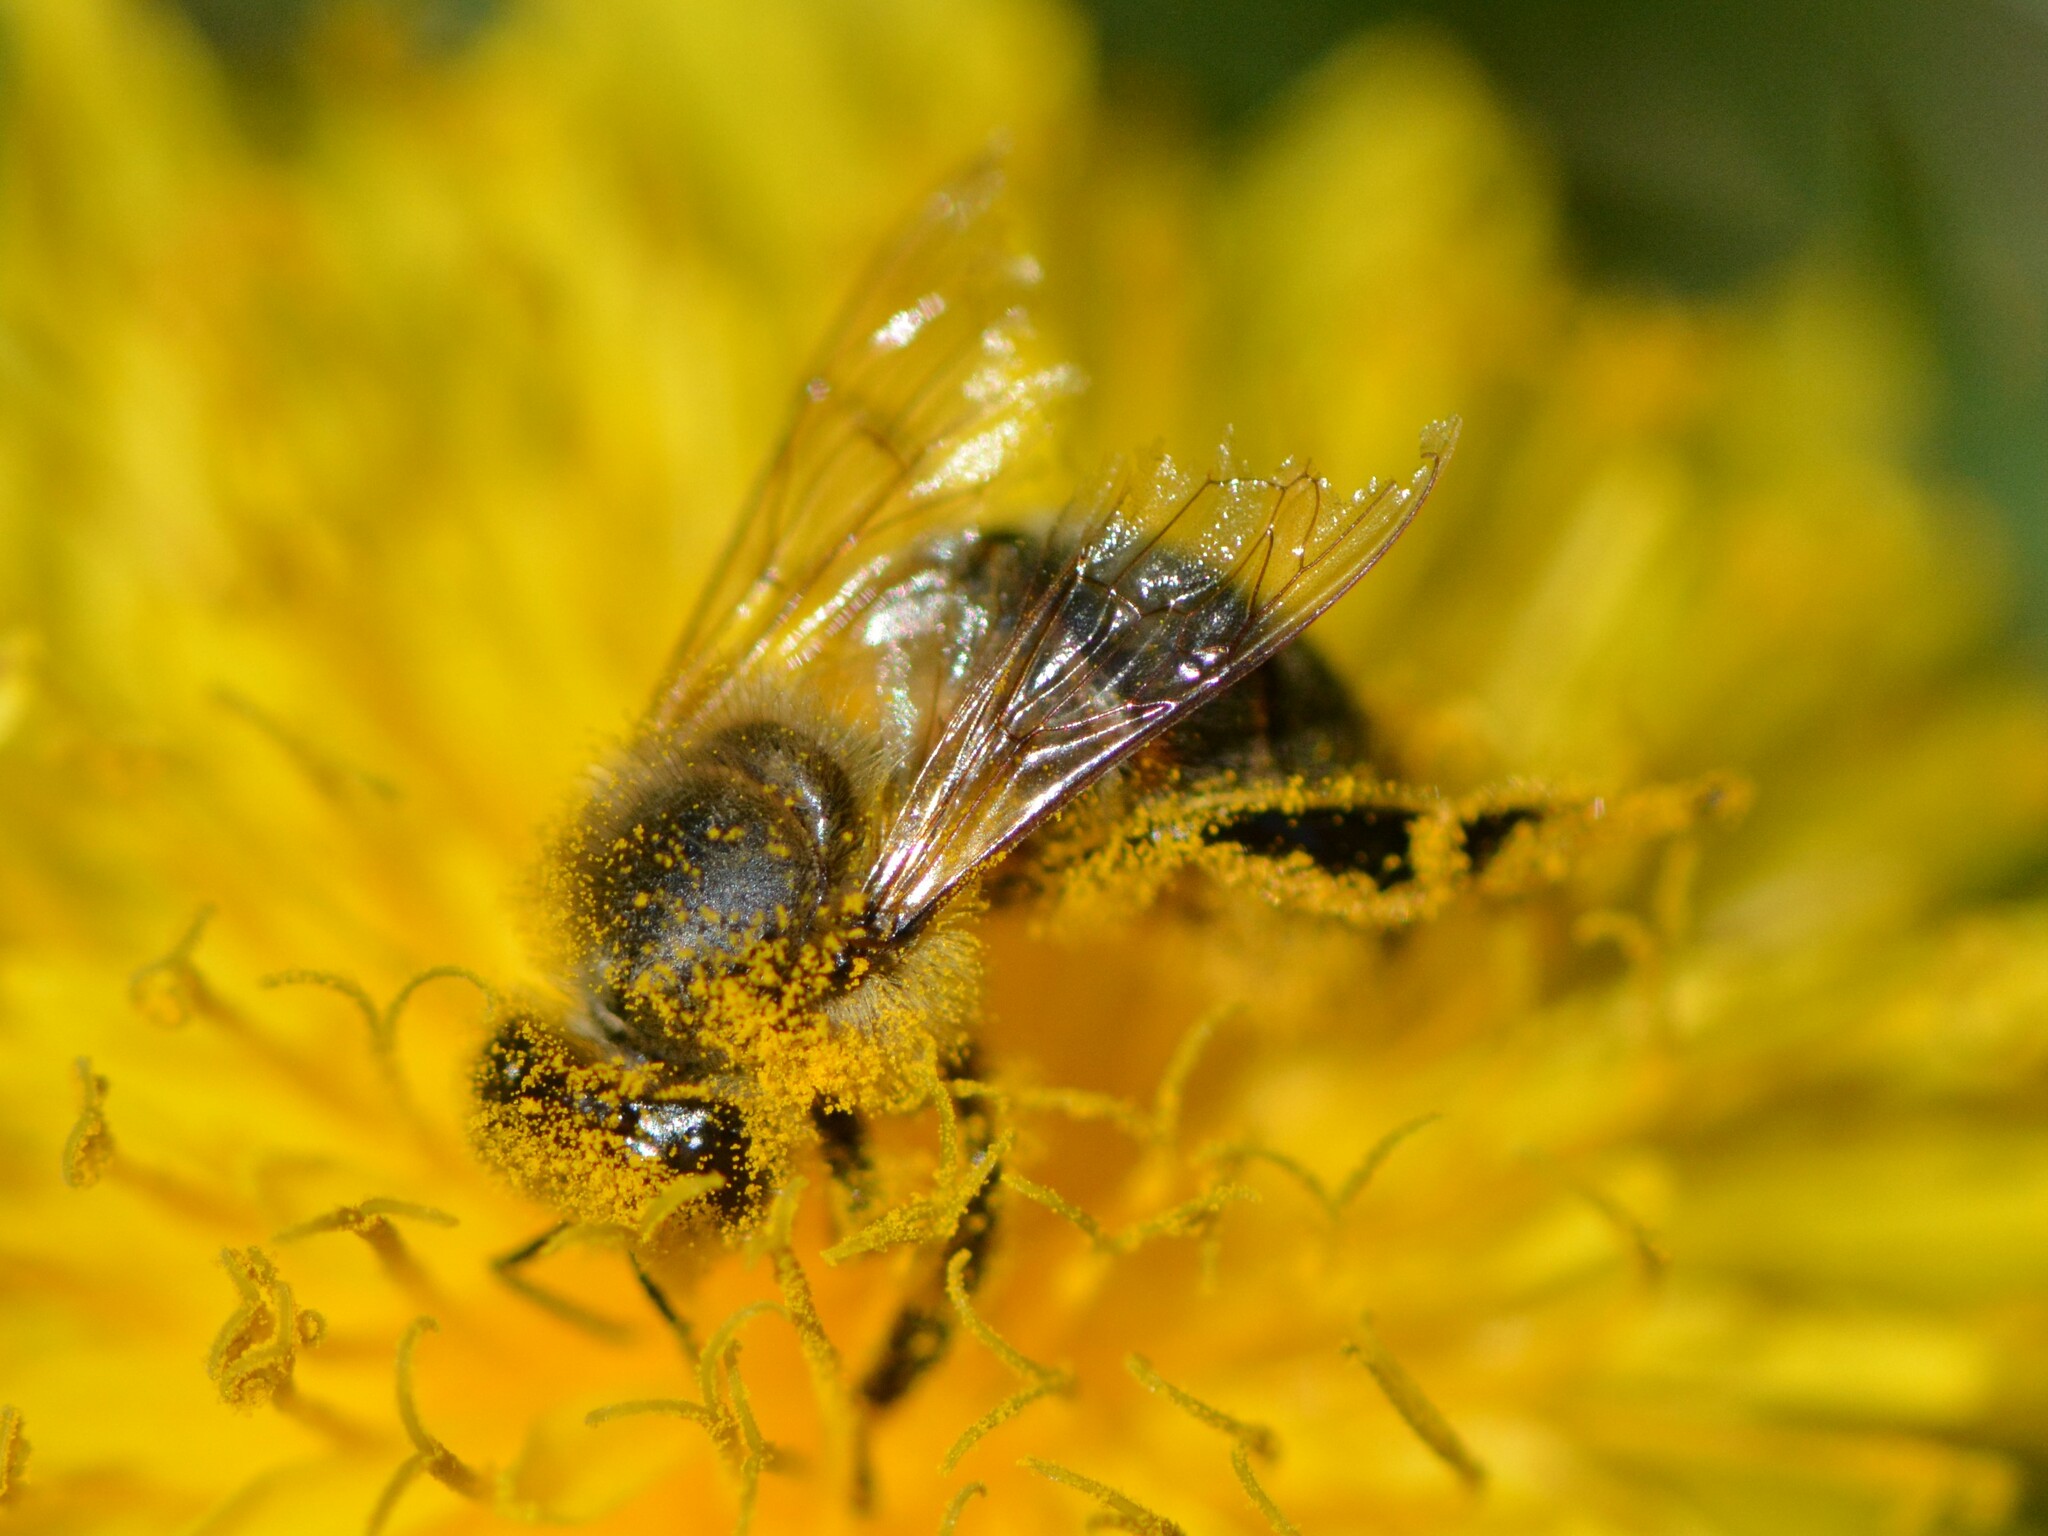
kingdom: Animalia
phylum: Arthropoda
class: Insecta
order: Hymenoptera
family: Apidae
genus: Apis
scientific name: Apis mellifera
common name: Honey bee
